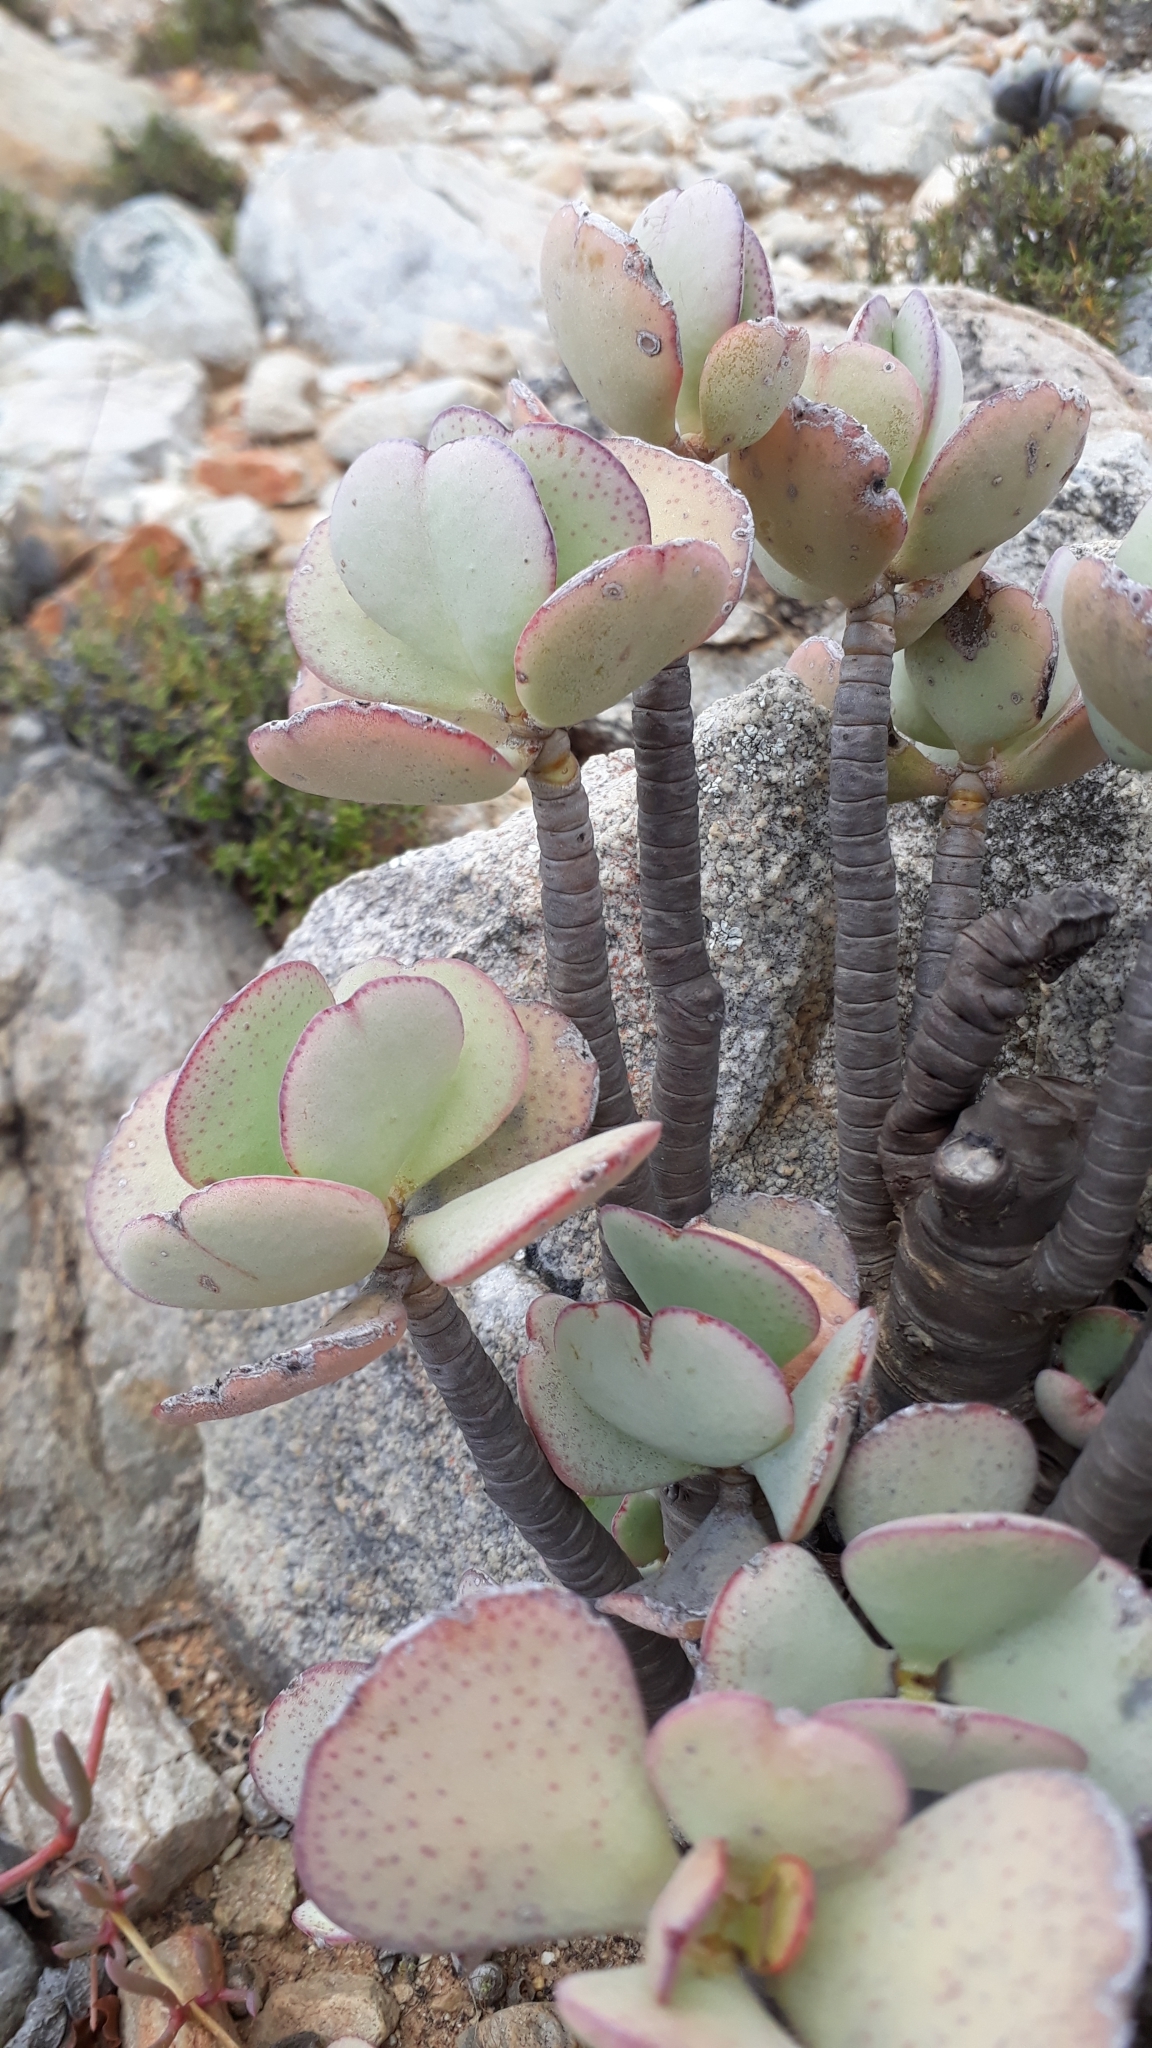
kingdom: Plantae
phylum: Tracheophyta
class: Magnoliopsida
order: Saxifragales
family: Crassulaceae
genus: Crassula
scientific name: Crassula arborescens
